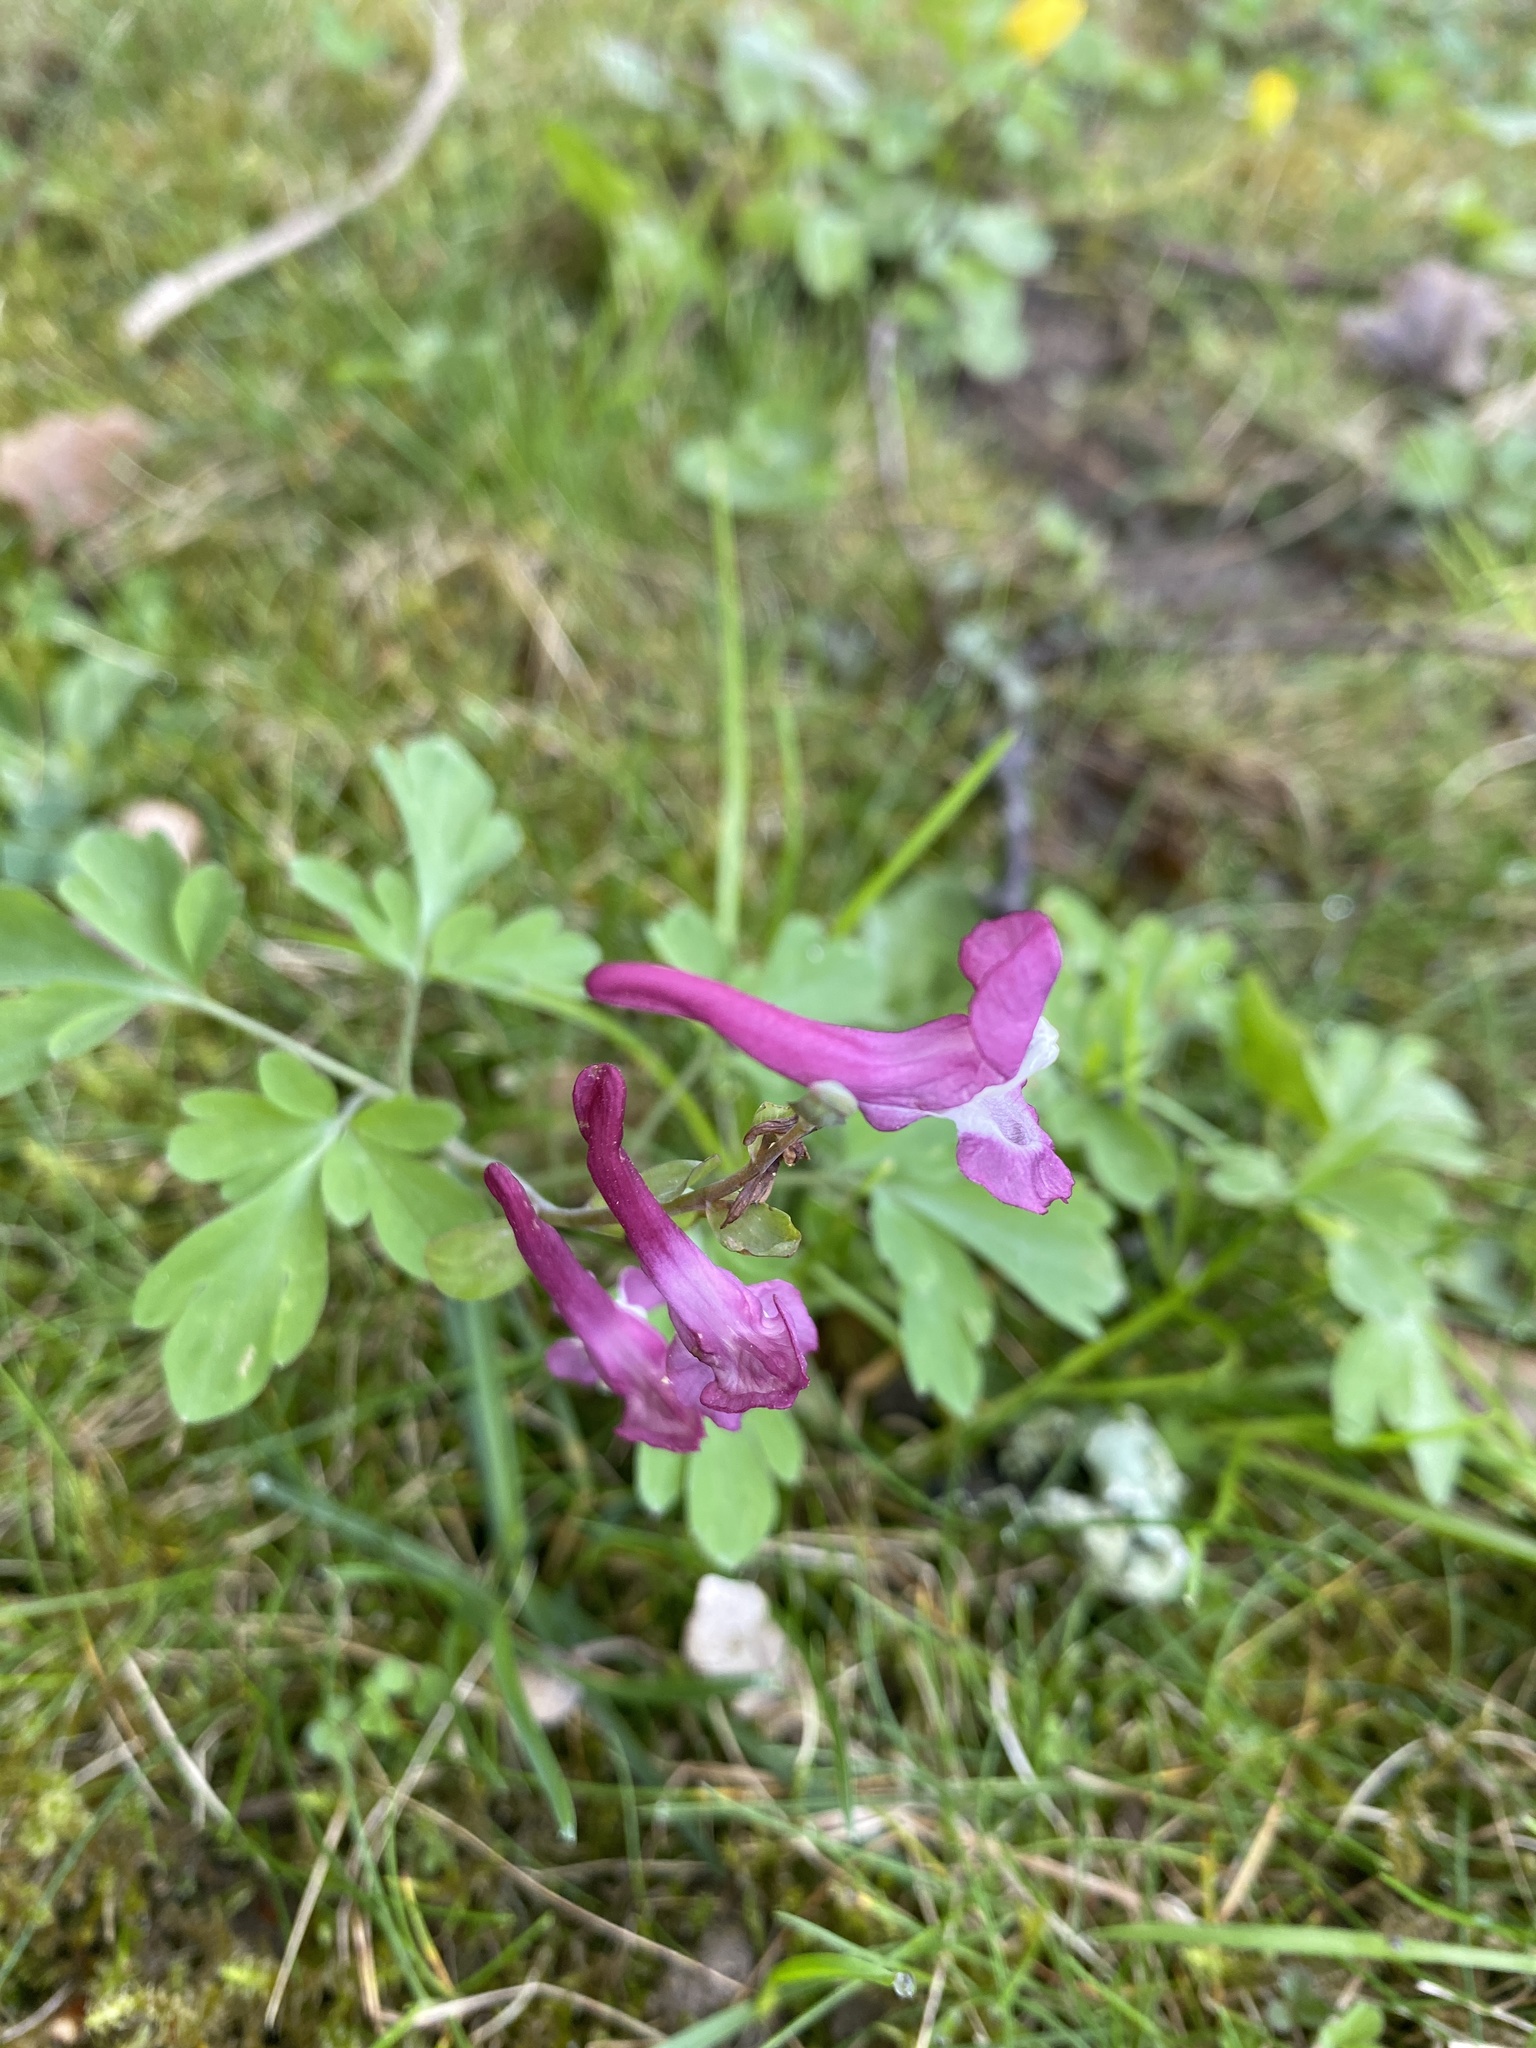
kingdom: Plantae
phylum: Tracheophyta
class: Magnoliopsida
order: Ranunculales
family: Papaveraceae
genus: Corydalis
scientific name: Corydalis cava
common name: Hollowroot
